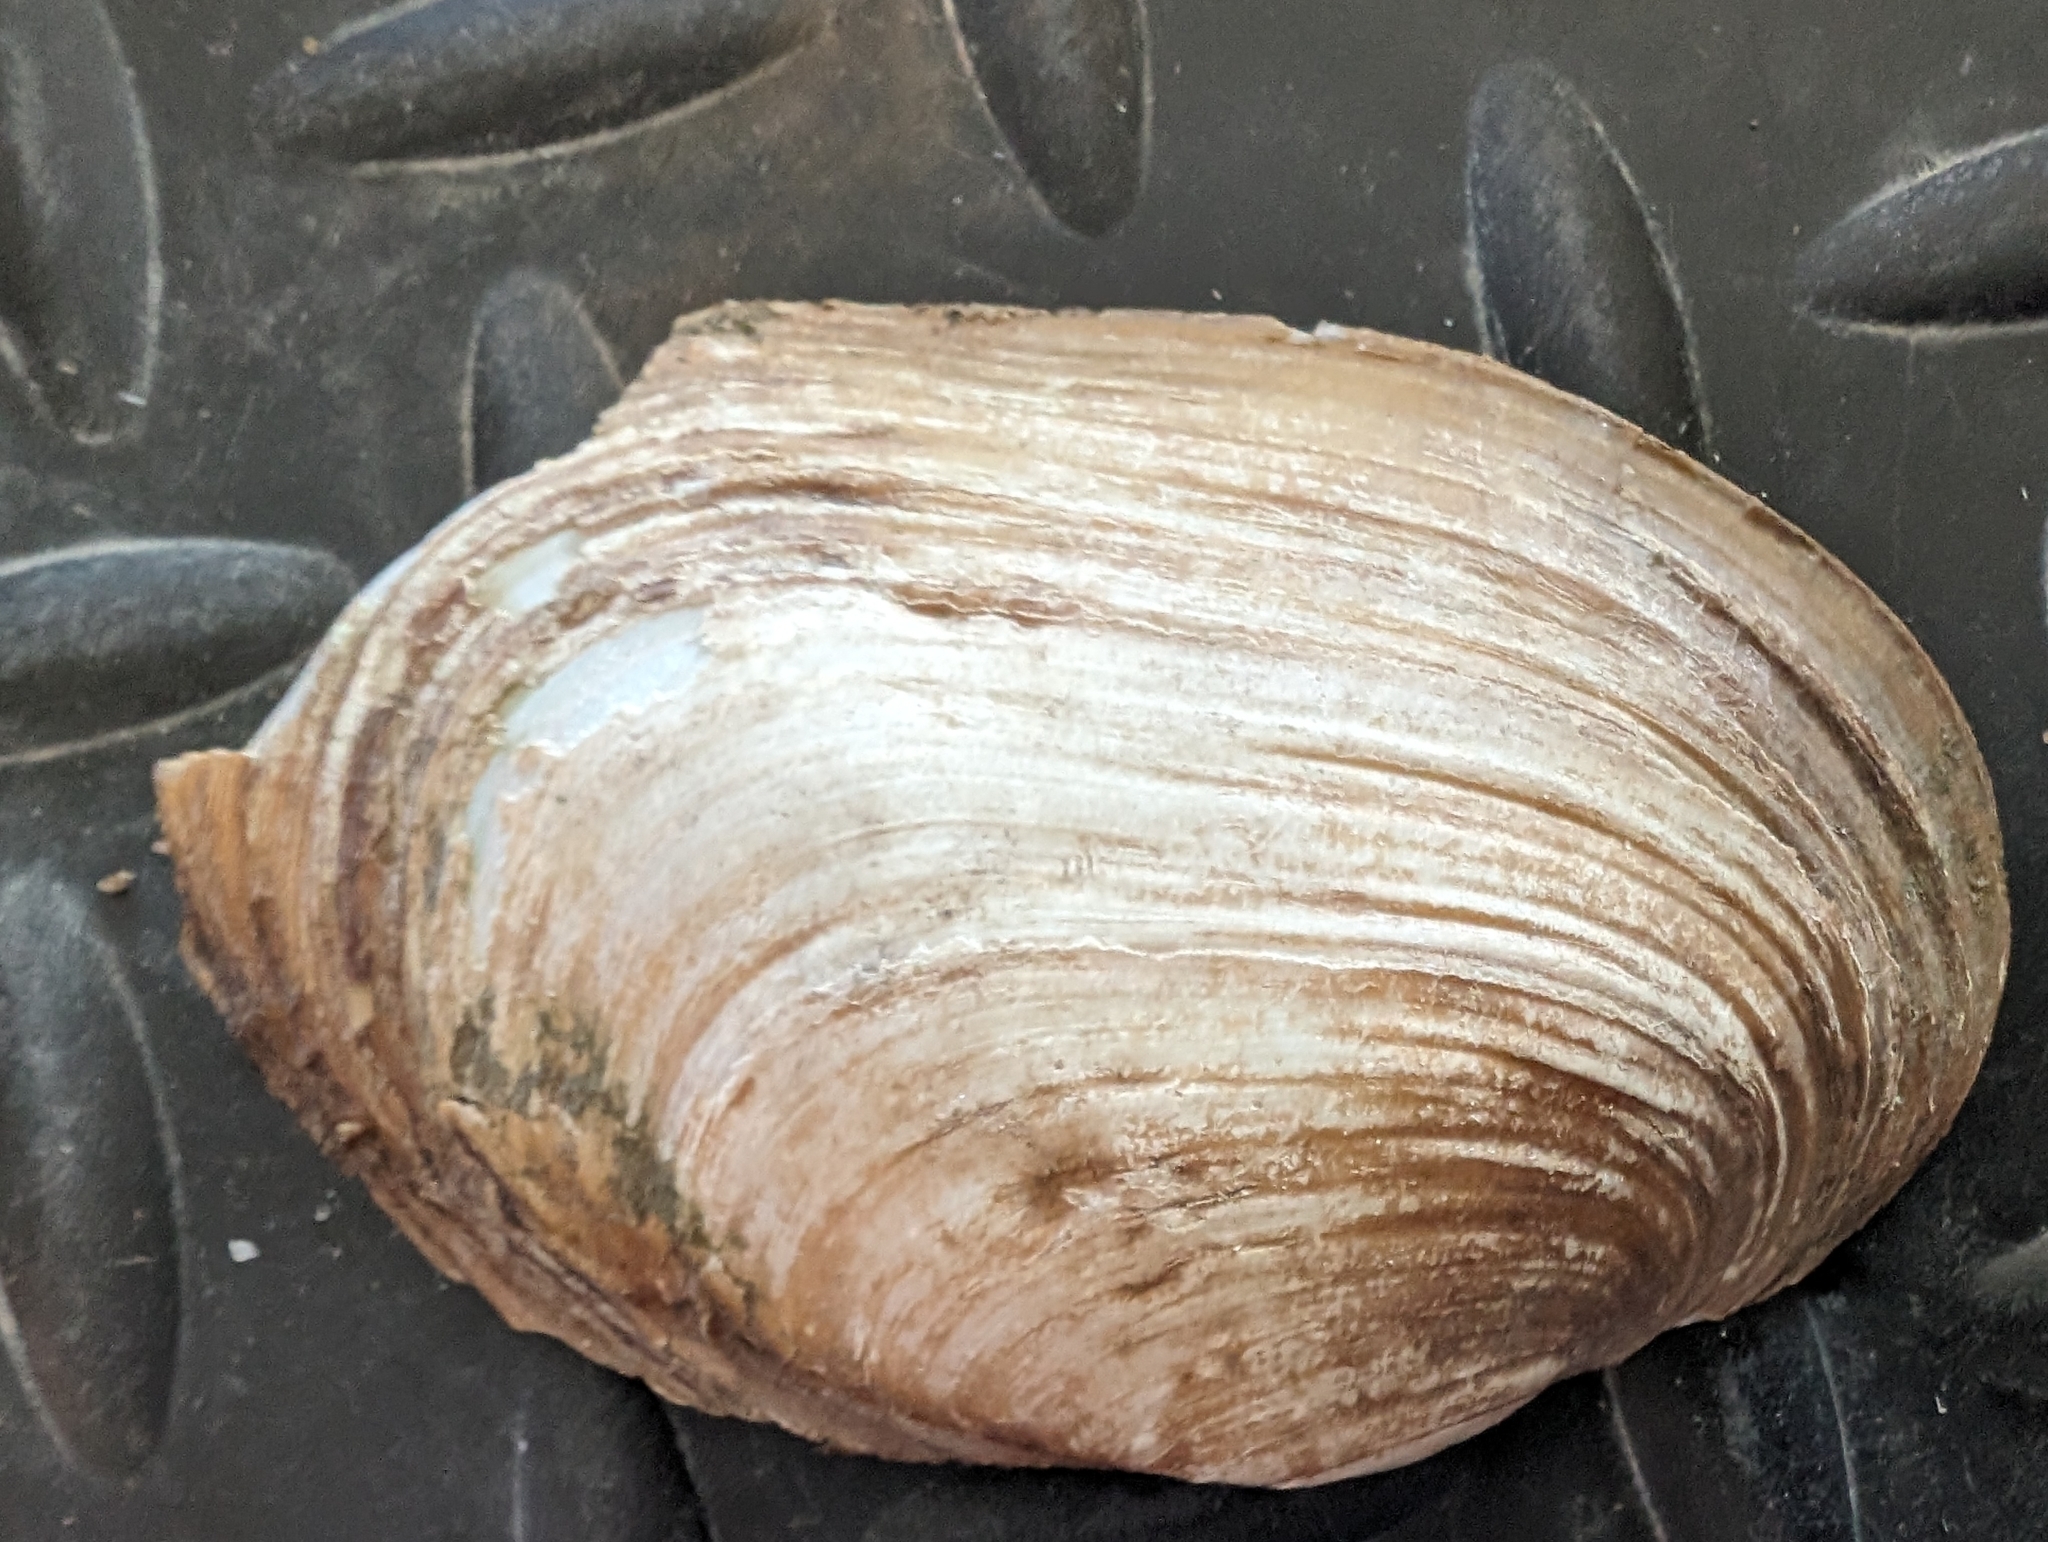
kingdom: Animalia
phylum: Mollusca
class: Bivalvia
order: Unionida
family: Unionidae
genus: Potamilus
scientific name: Potamilus fragilis
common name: Fragile papershell
